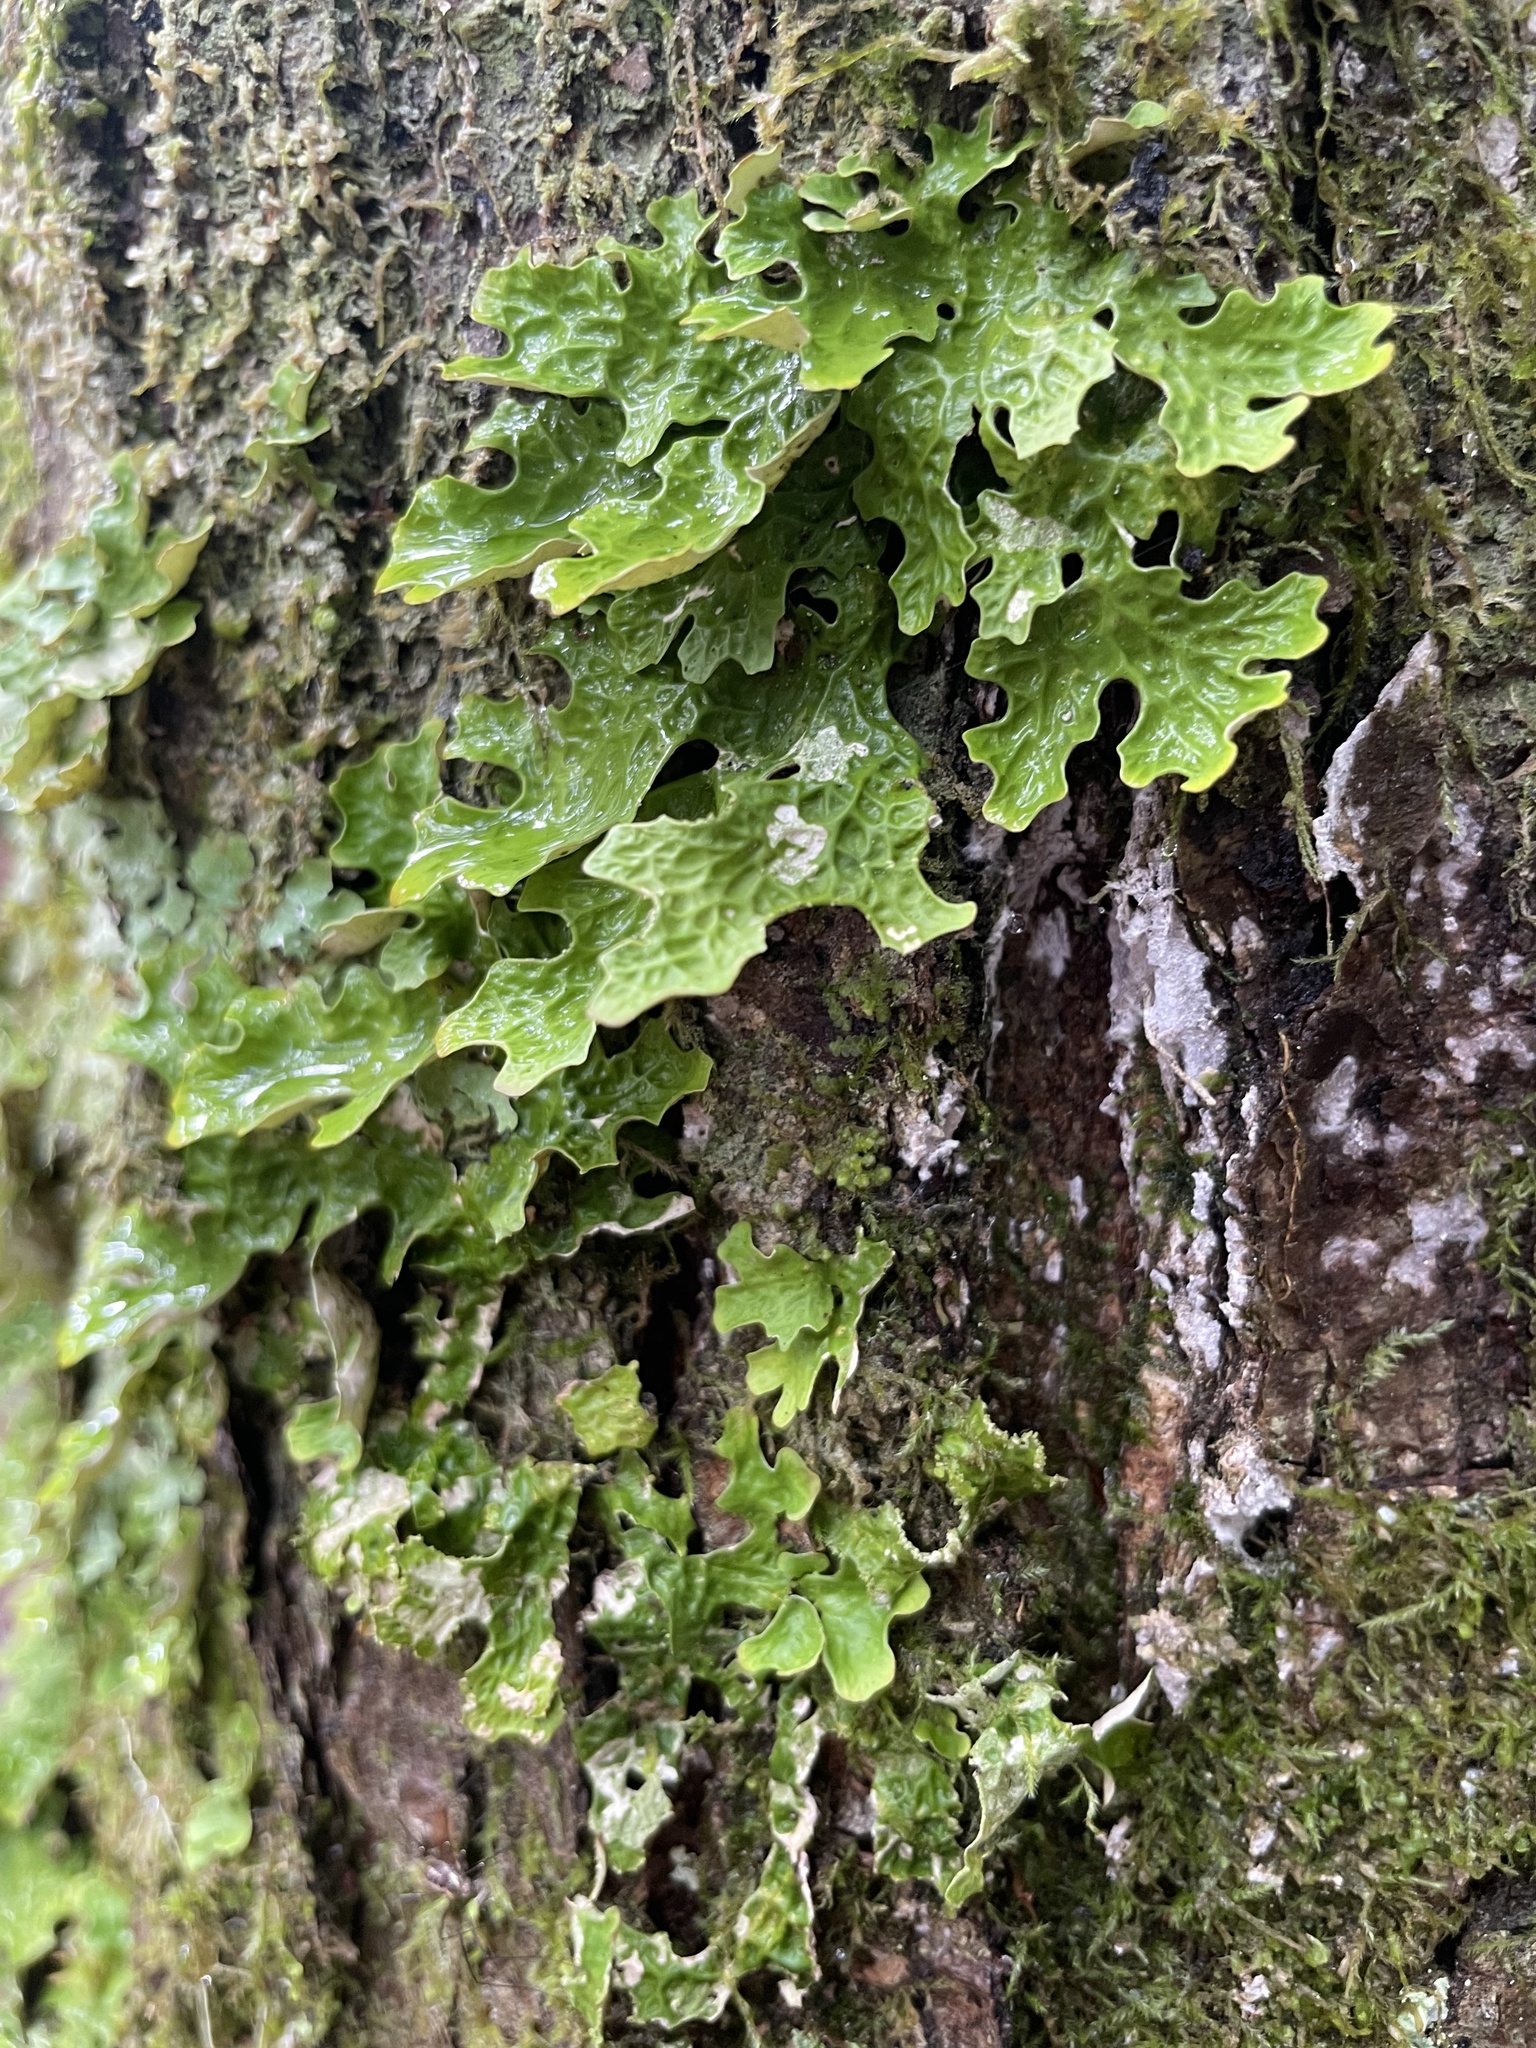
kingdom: Fungi
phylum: Ascomycota
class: Lecanoromycetes
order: Peltigerales
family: Lobariaceae
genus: Lobaria
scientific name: Lobaria pulmonaria
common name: Lungwort
